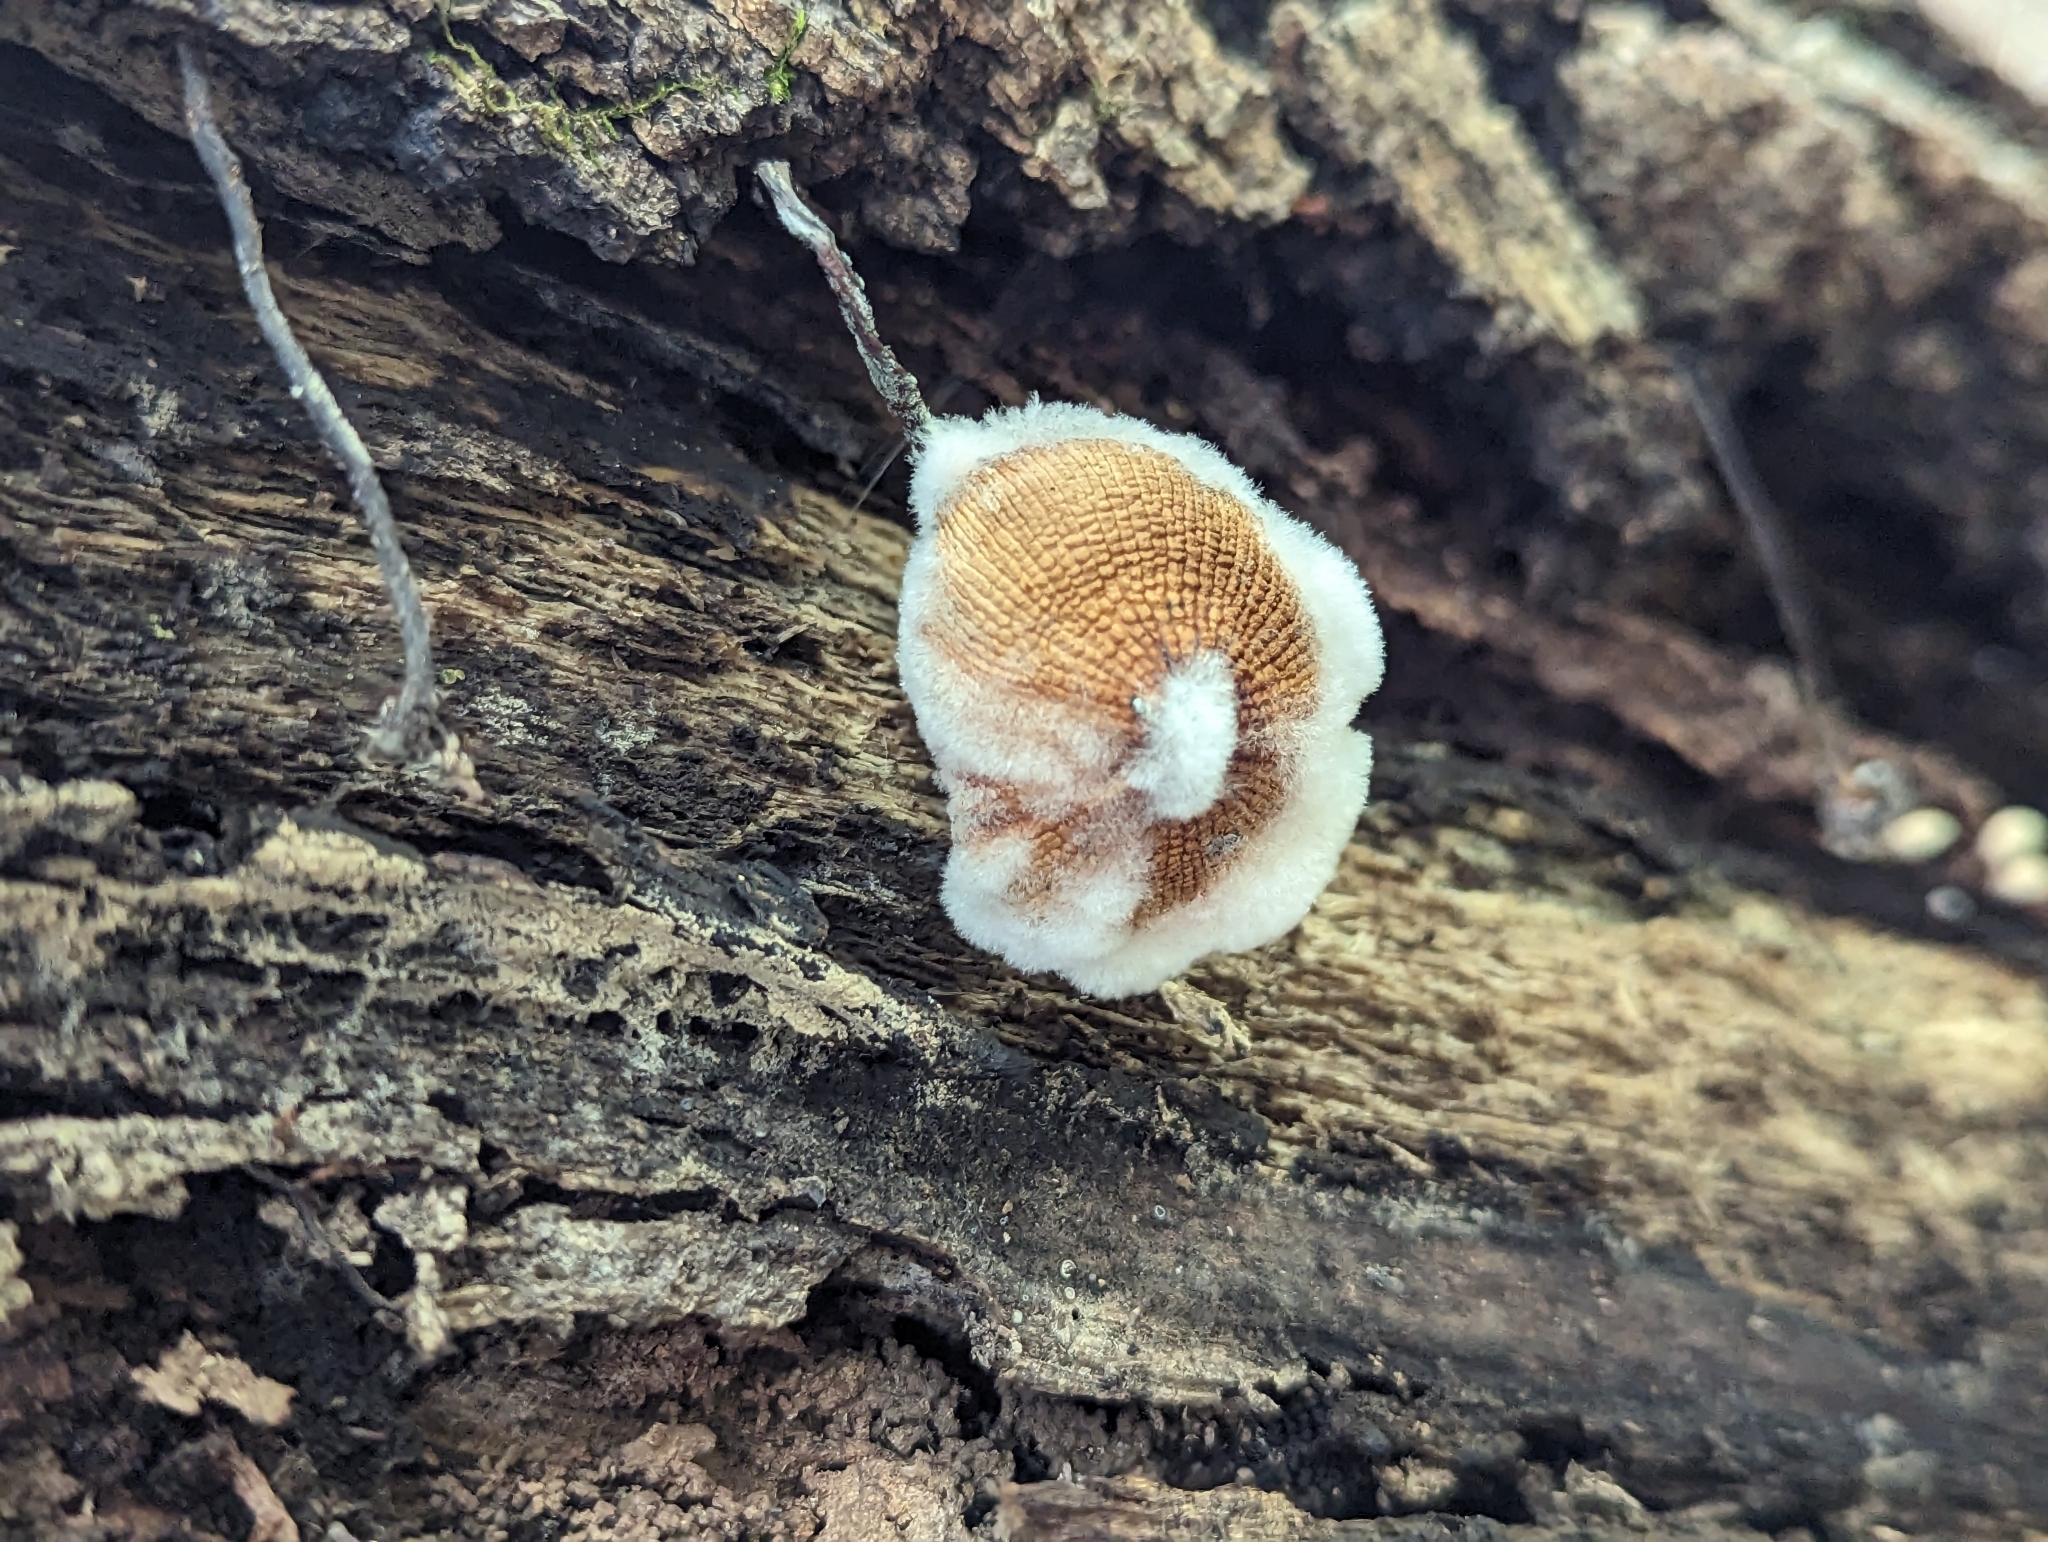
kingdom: Fungi
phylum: Basidiomycota
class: Agaricomycetes
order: Polyporales
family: Steccherinaceae
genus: Steccherinum
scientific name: Steccherinum ochraceum
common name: Ochre spreading tooth
